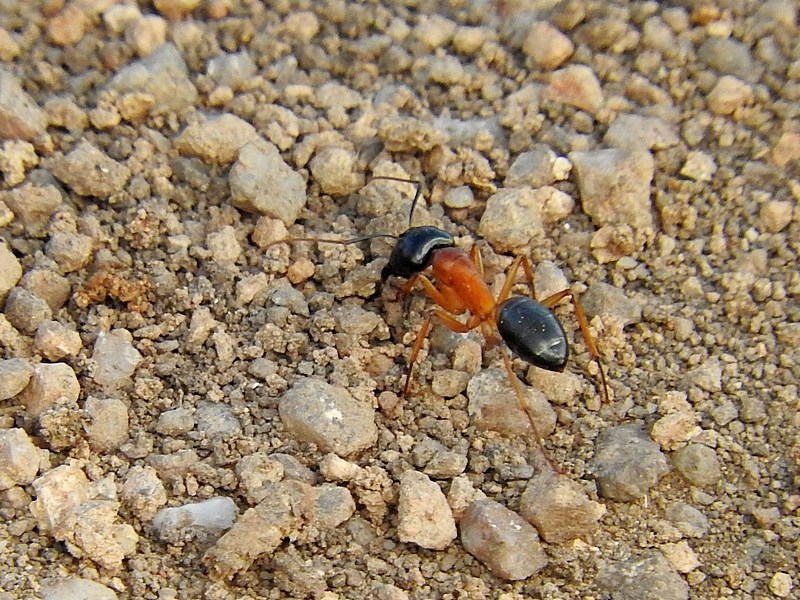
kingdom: Animalia
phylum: Arthropoda
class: Insecta
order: Hymenoptera
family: Formicidae
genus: Camponotus
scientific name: Camponotus consobrinus
